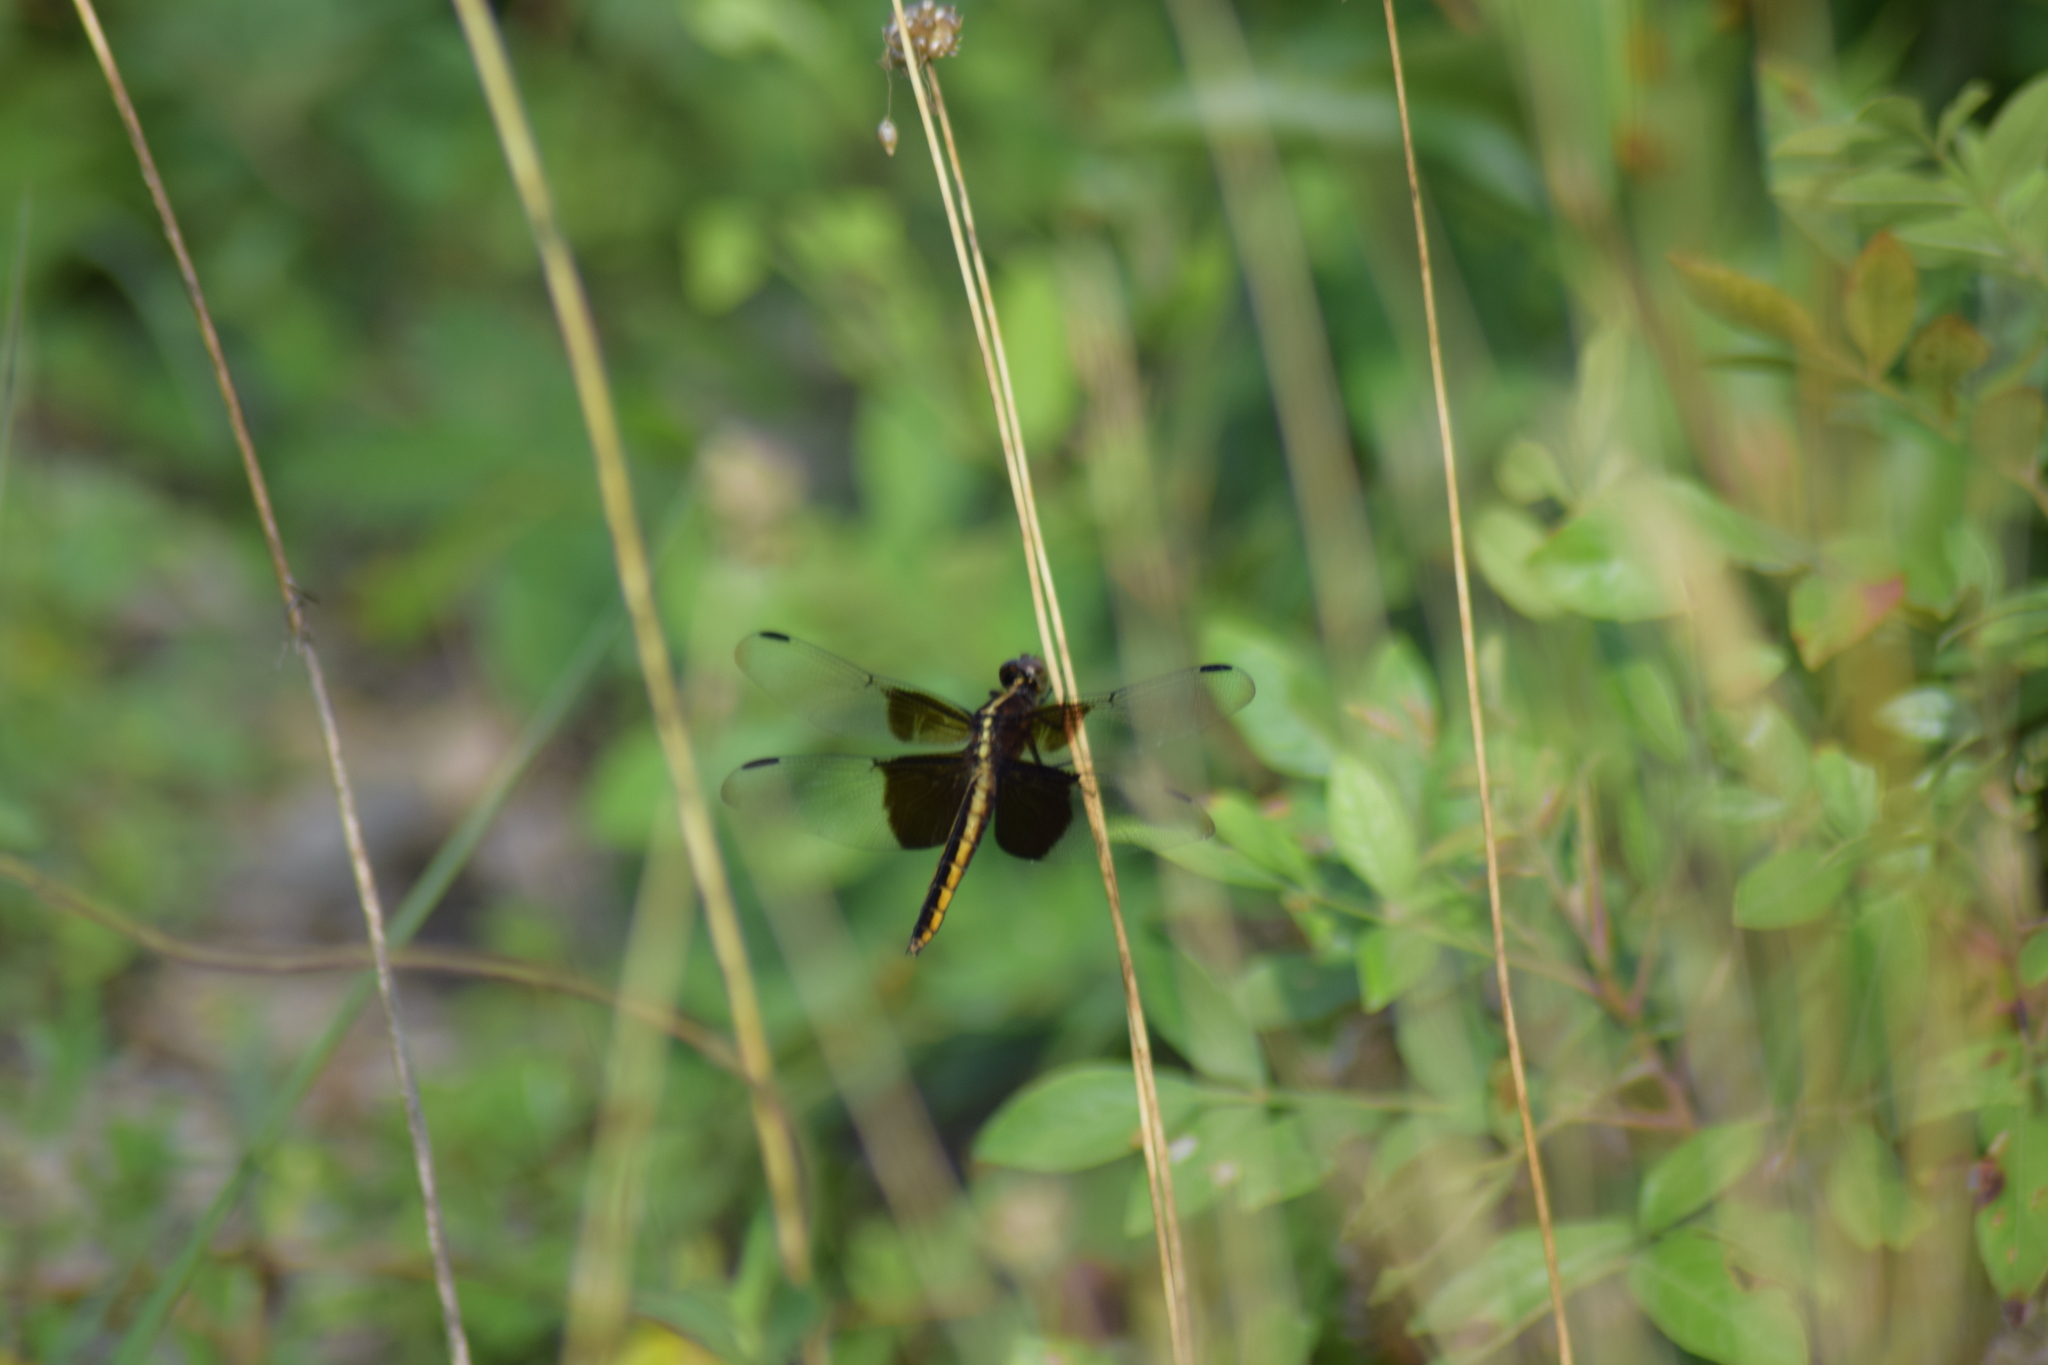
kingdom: Animalia
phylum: Arthropoda
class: Insecta
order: Odonata
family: Libellulidae
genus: Libellula
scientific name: Libellula luctuosa
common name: Widow skimmer
